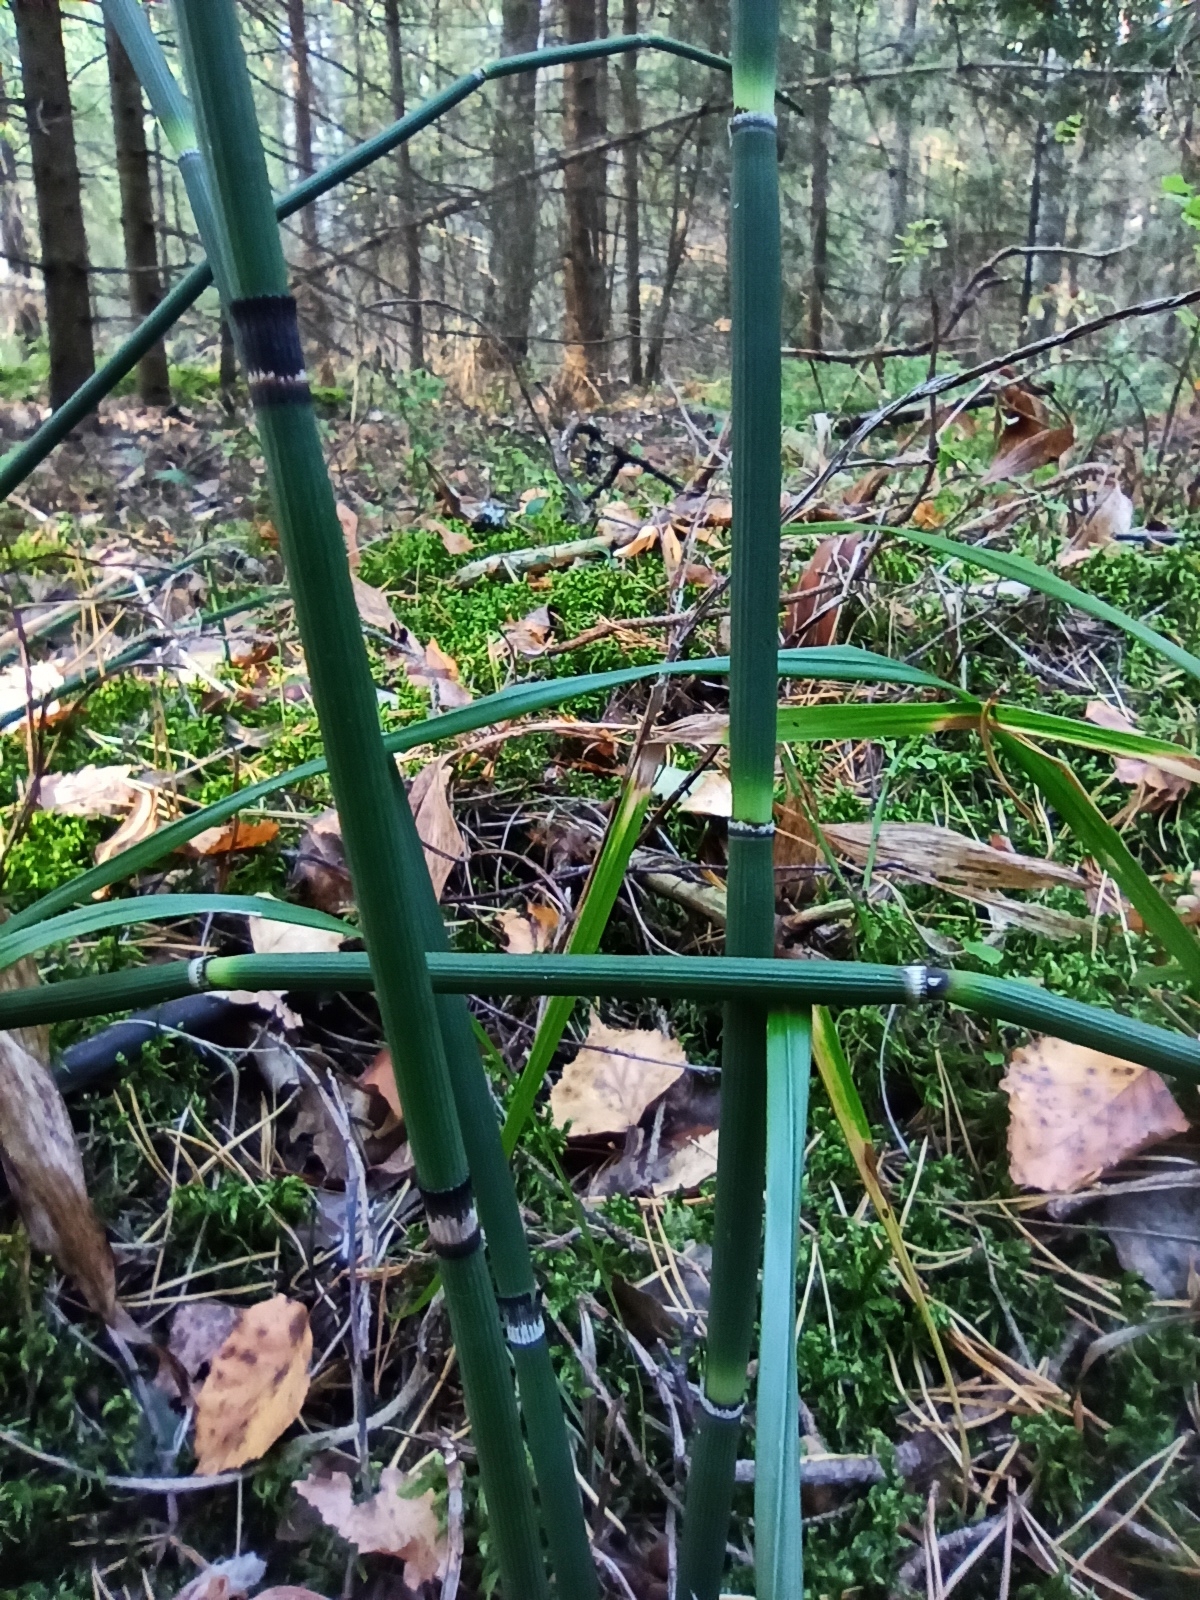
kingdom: Plantae
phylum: Tracheophyta
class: Polypodiopsida
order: Equisetales
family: Equisetaceae
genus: Equisetum
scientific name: Equisetum hyemale
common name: Rough horsetail
